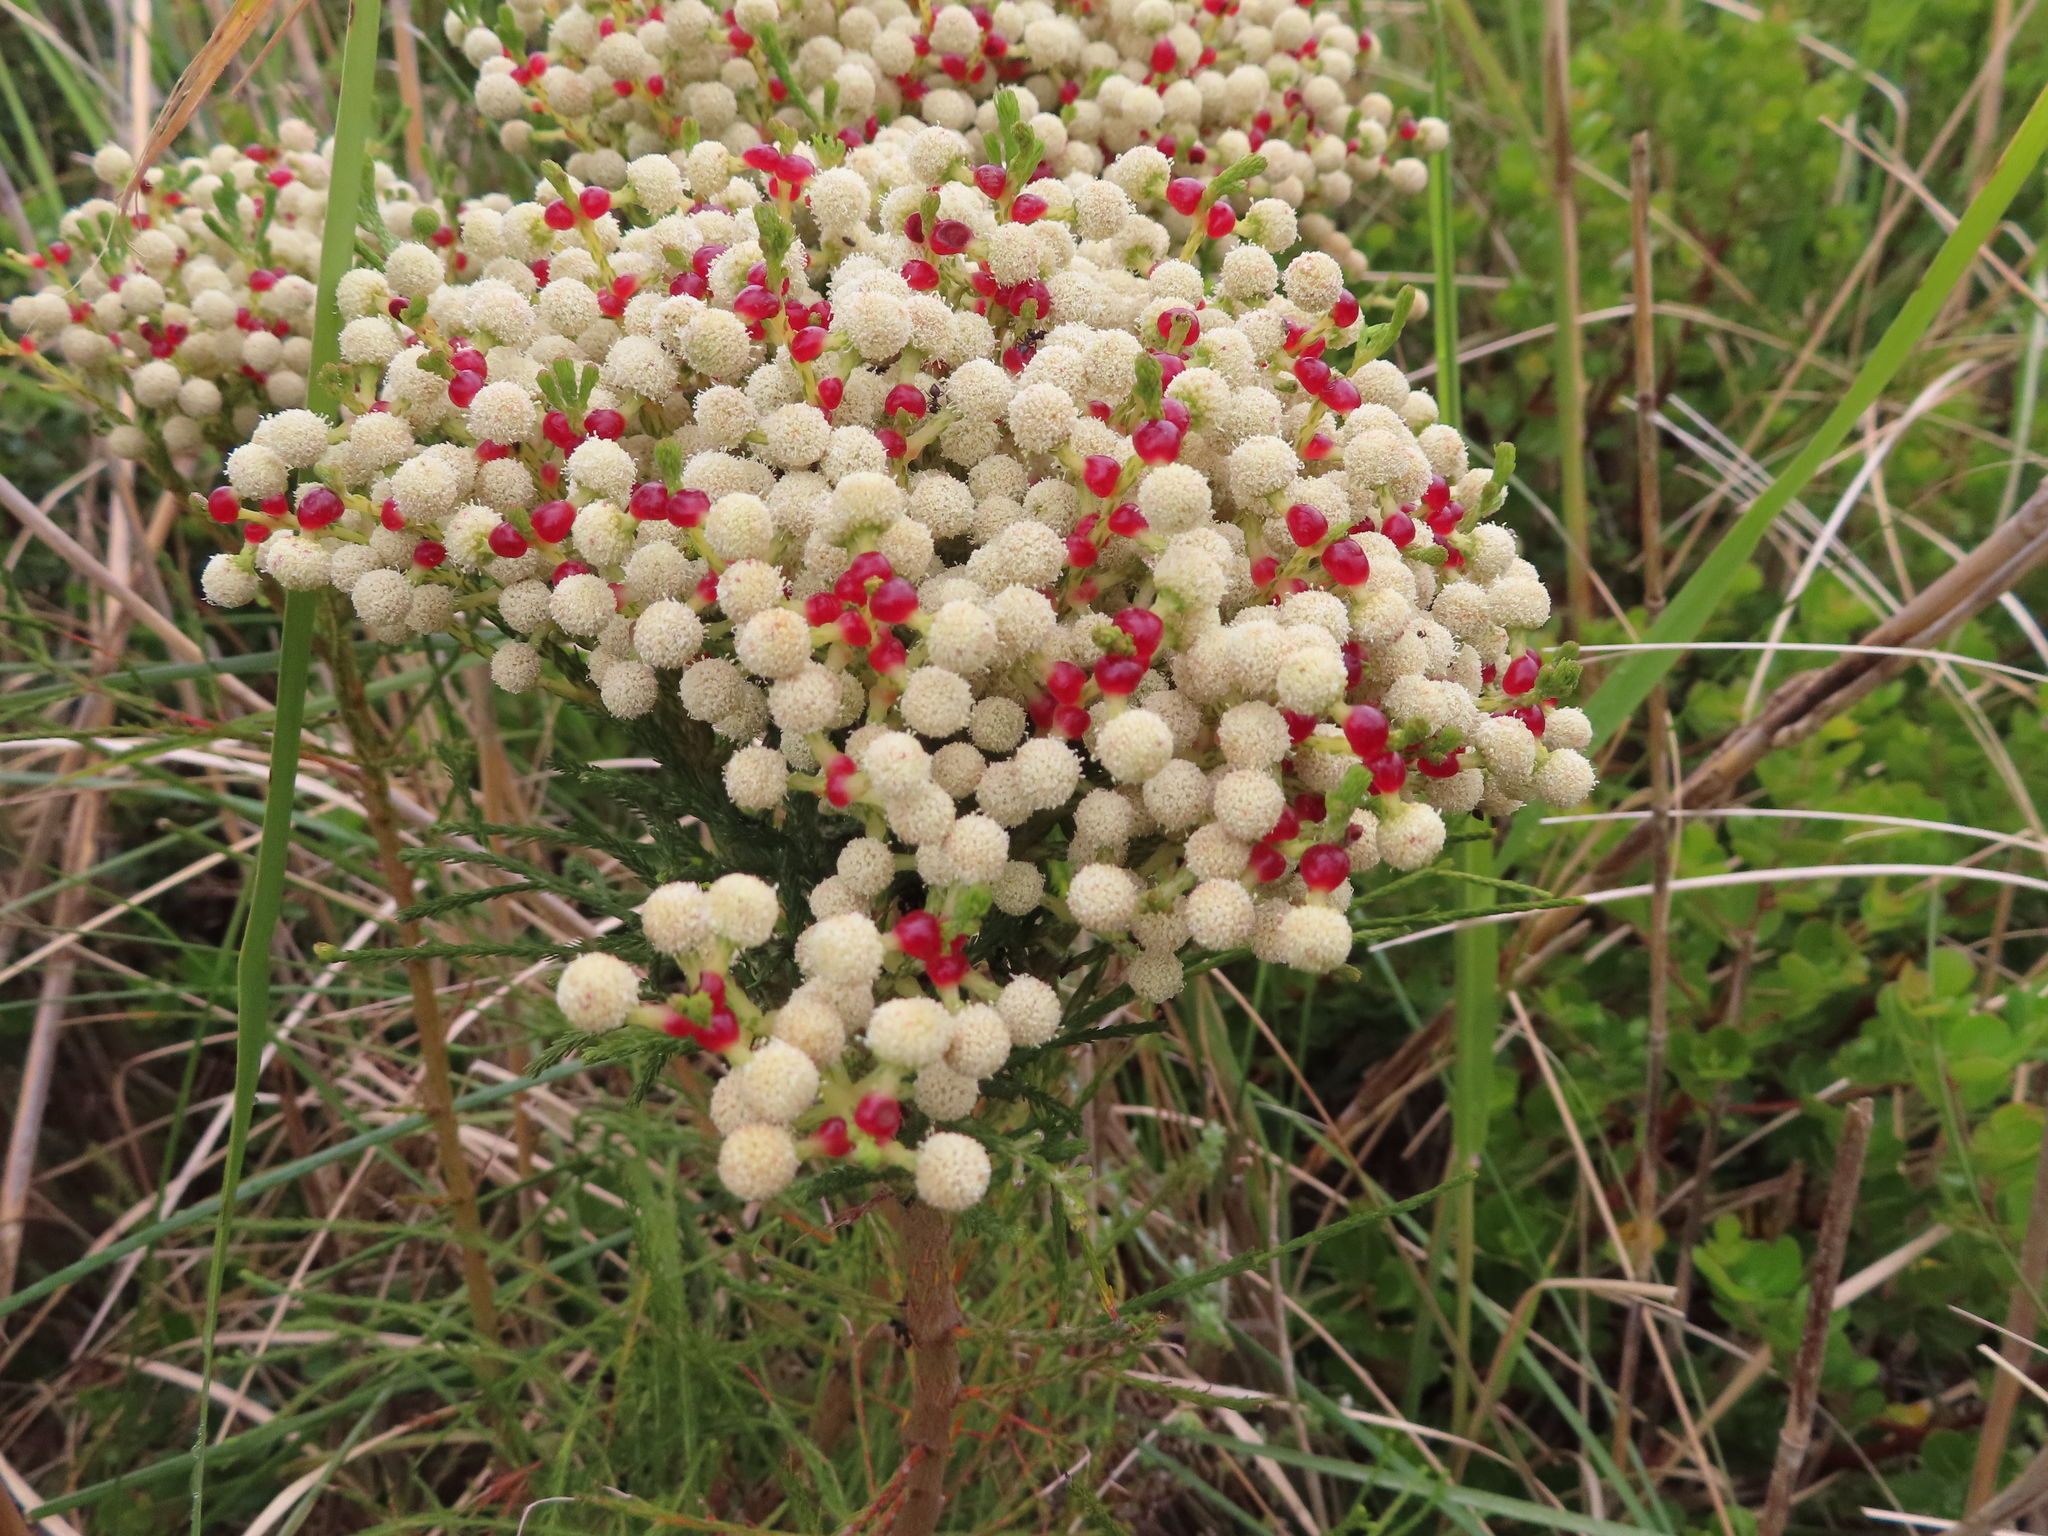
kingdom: Plantae
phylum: Tracheophyta
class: Magnoliopsida
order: Bruniales
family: Bruniaceae
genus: Berzelia
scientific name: Berzelia lanuginosa
